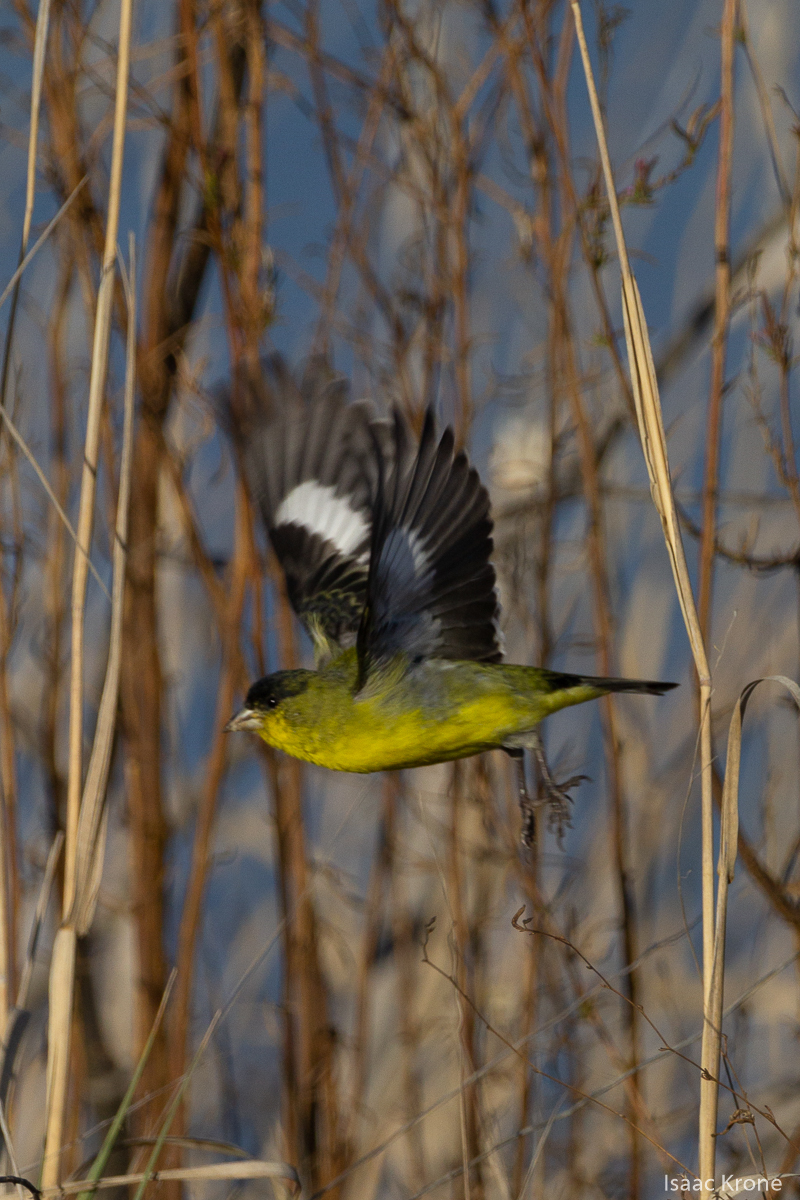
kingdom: Animalia
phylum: Chordata
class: Aves
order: Passeriformes
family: Fringillidae
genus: Spinus
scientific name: Spinus psaltria
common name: Lesser goldfinch
